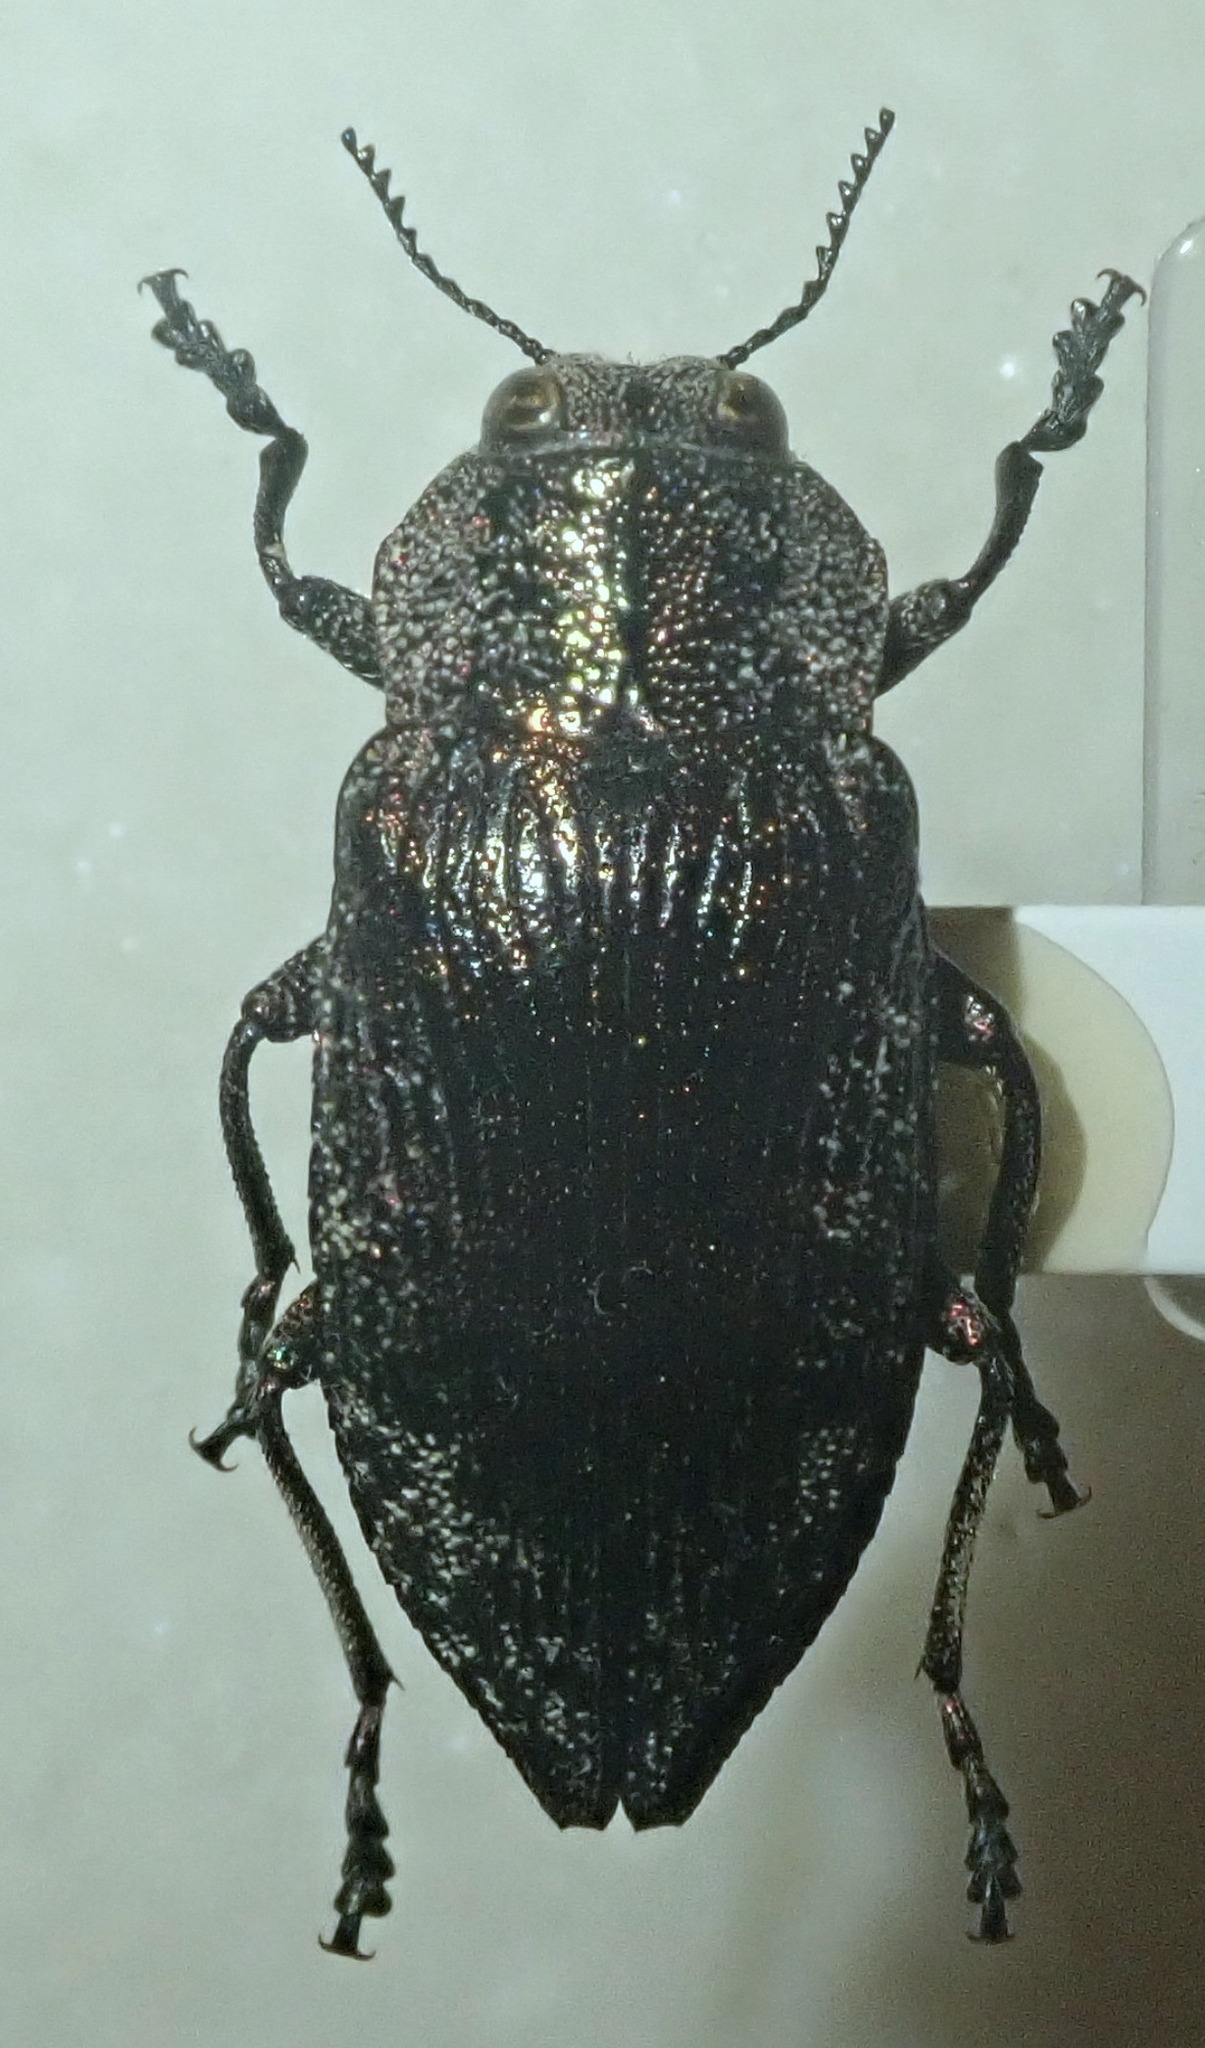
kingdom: Animalia
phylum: Arthropoda
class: Insecta
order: Coleoptera
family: Buprestidae
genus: Poecilonota
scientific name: Poecilonota variolosa
